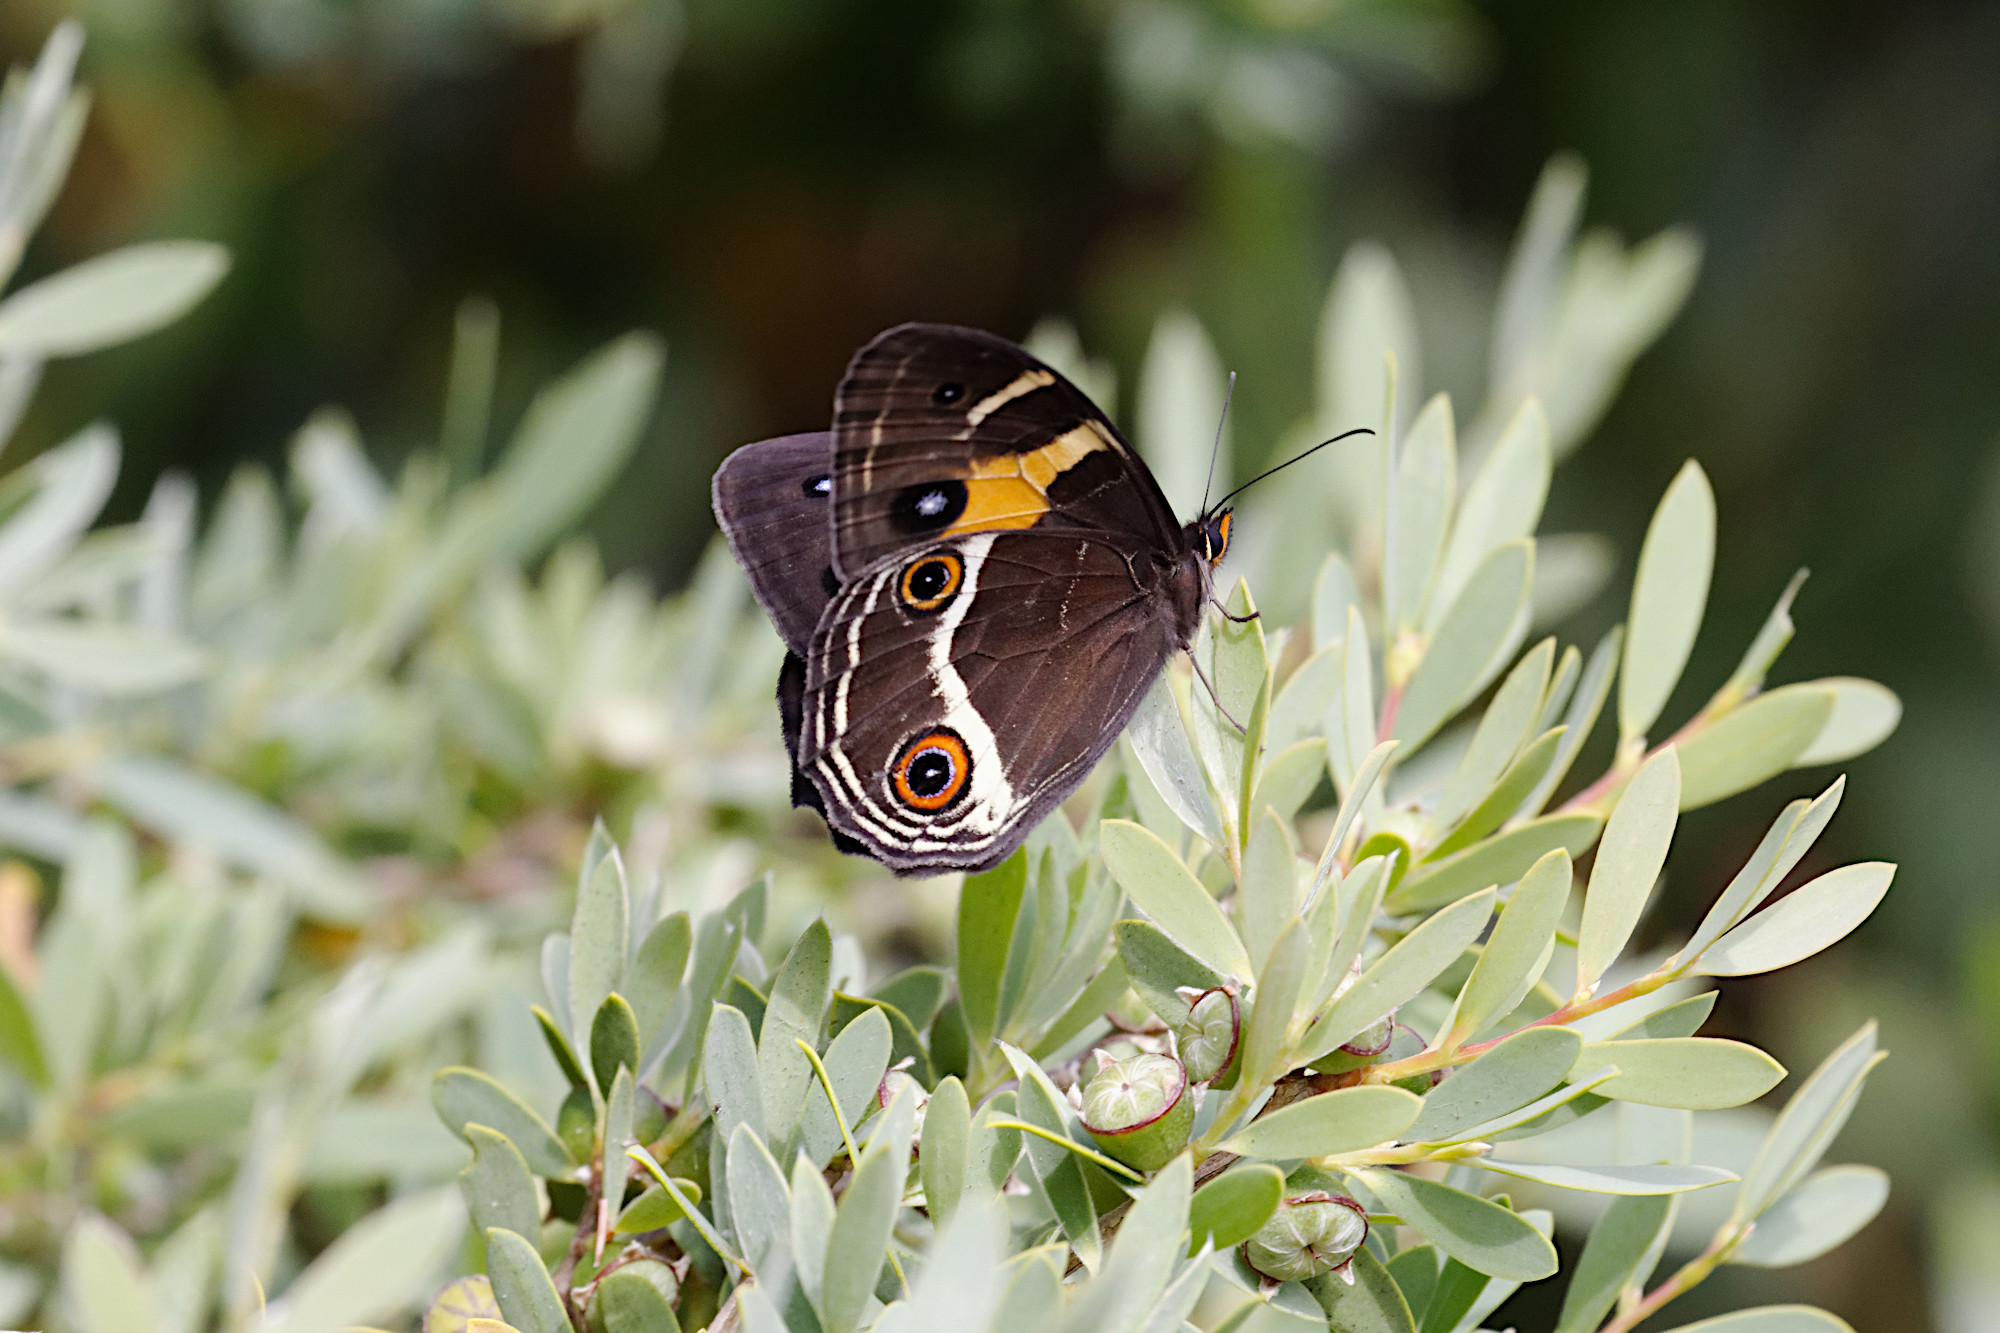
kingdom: Animalia
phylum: Arthropoda
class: Insecta
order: Lepidoptera
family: Nymphalidae
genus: Tisiphone
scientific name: Tisiphone abeona
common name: Swordgrass brown
